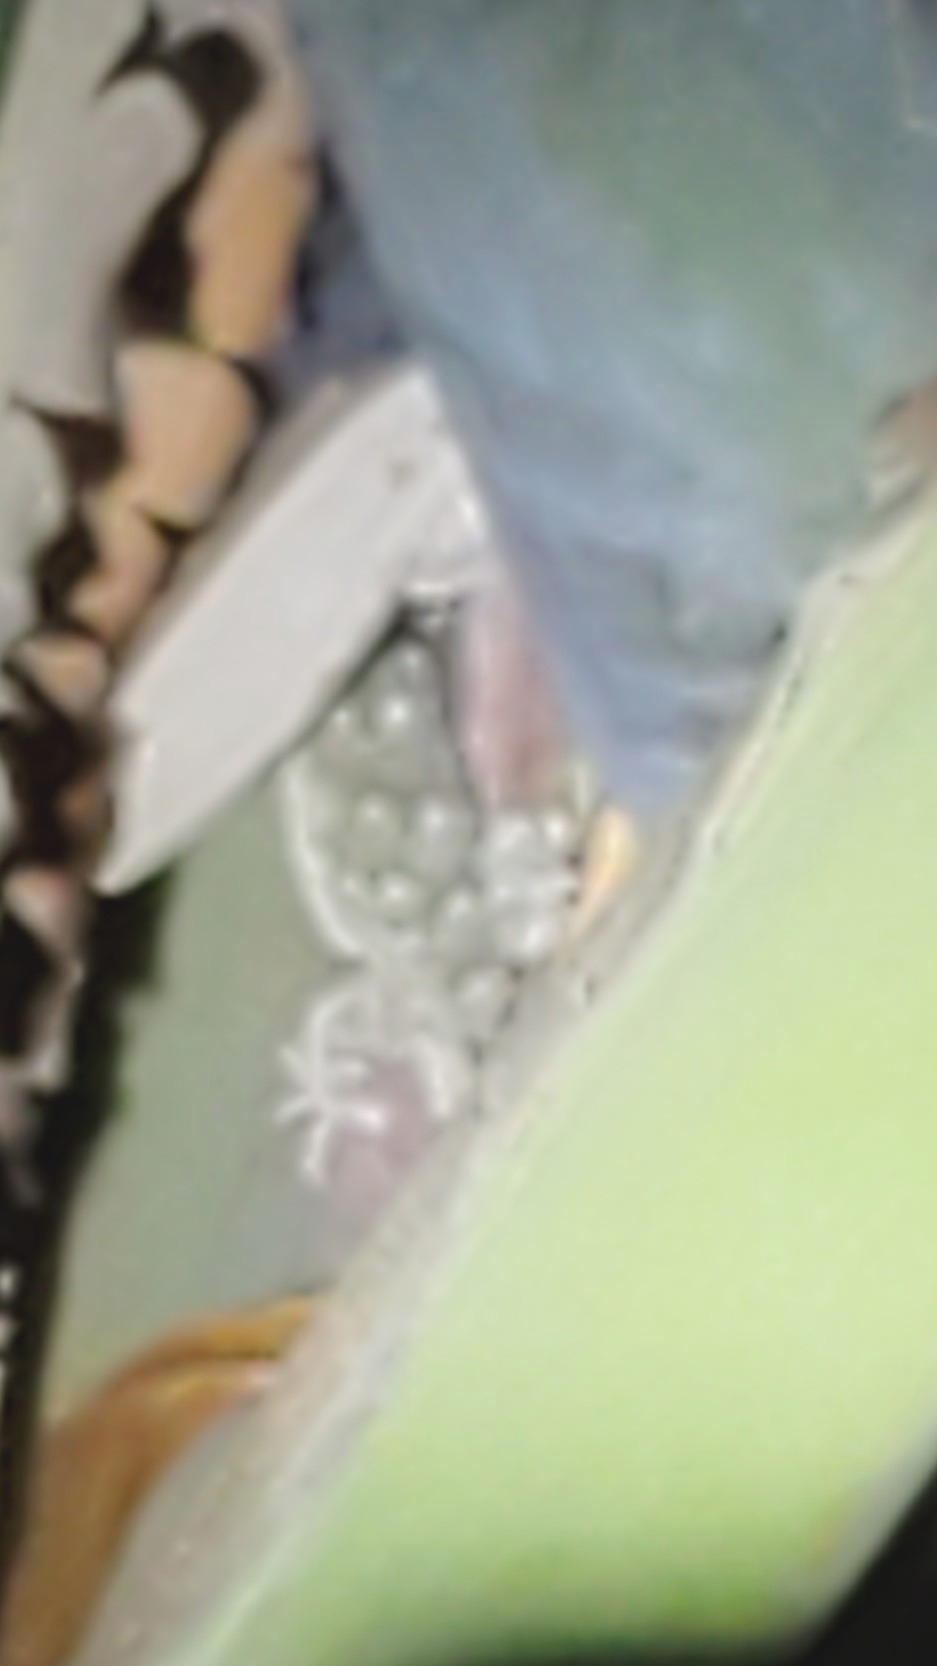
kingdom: Animalia
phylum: Chordata
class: Squamata
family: Phyllodactylidae
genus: Tarentola
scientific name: Tarentola mauritanica
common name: Moorish gecko
